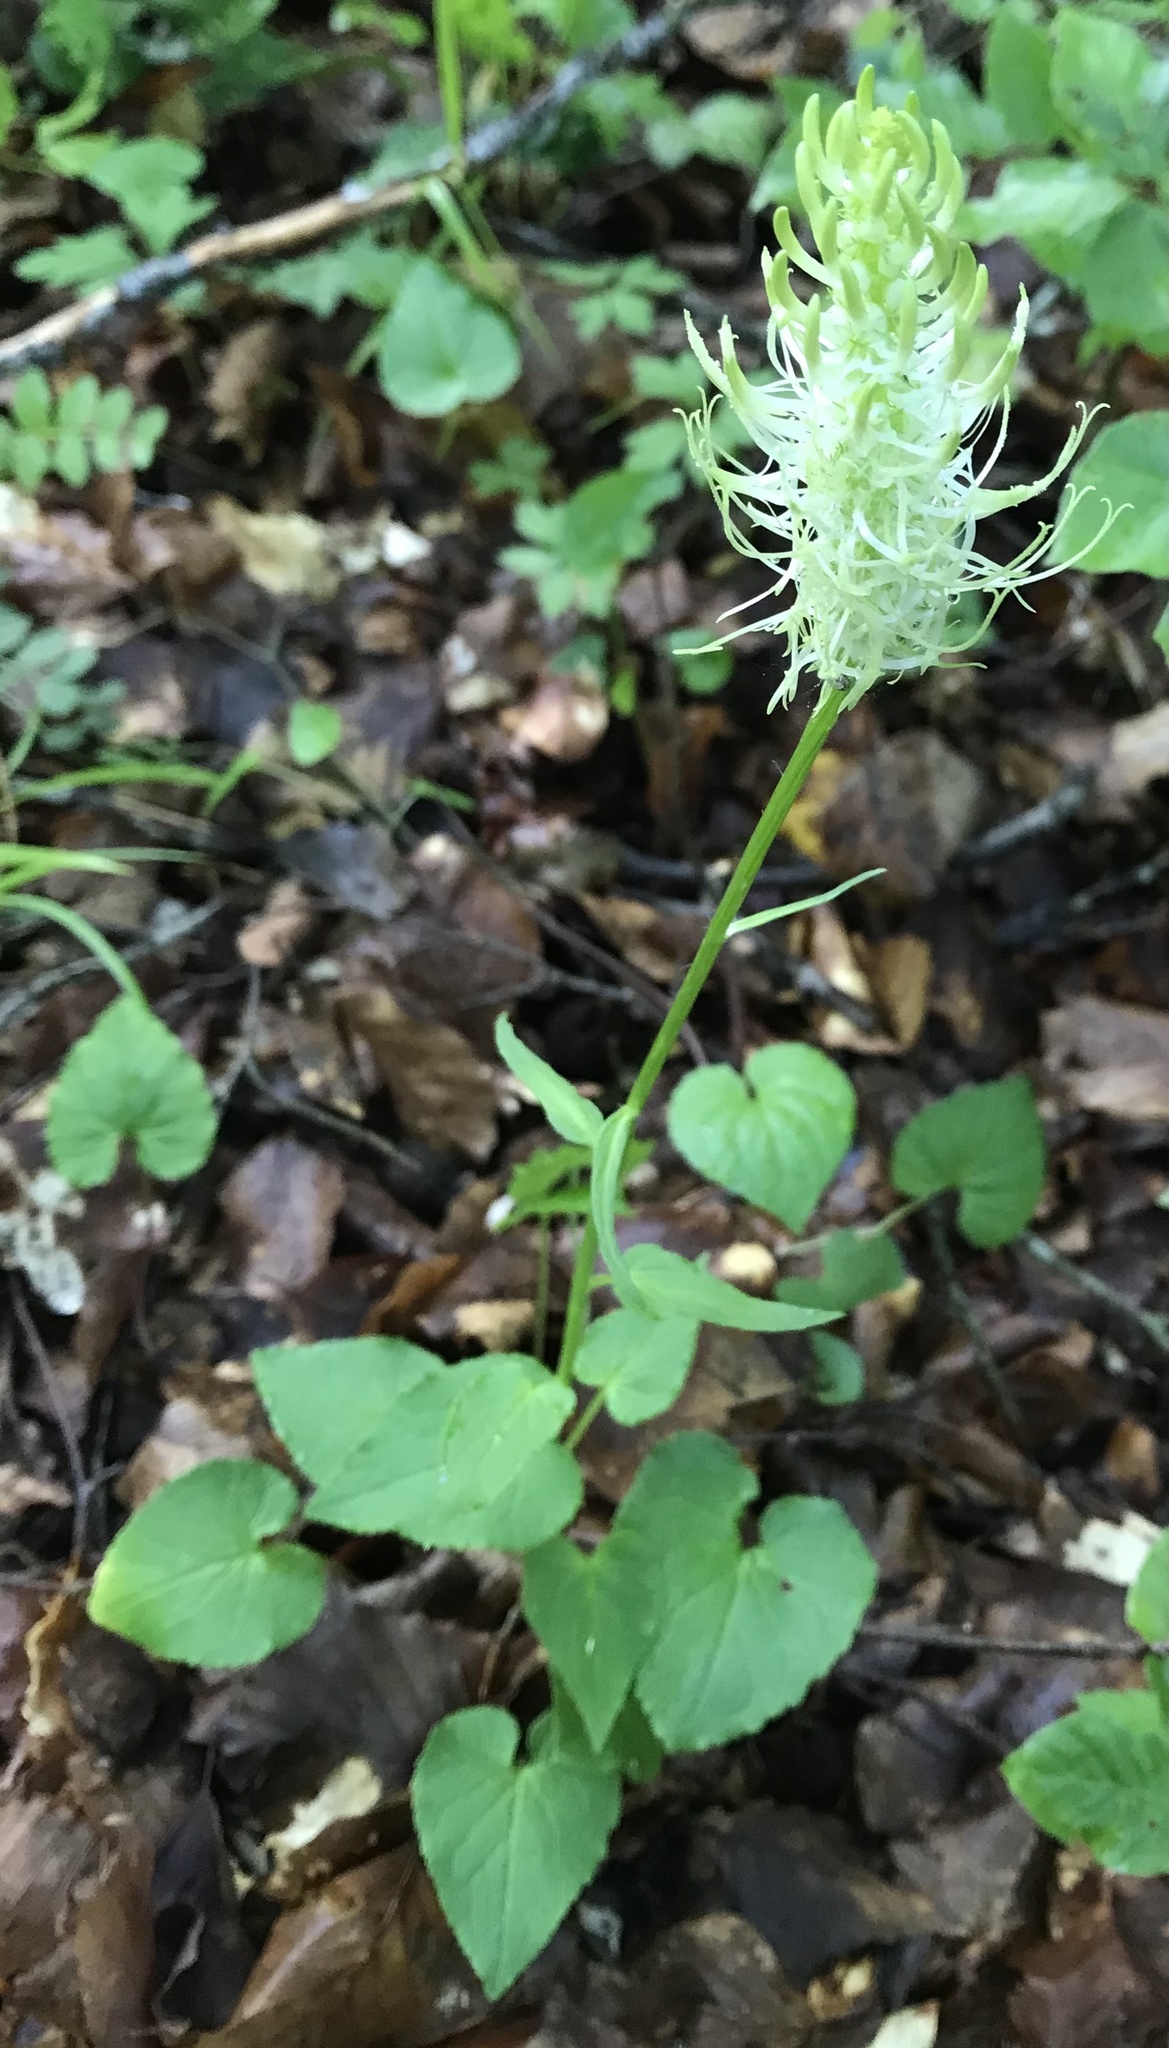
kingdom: Plantae
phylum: Tracheophyta
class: Magnoliopsida
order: Asterales
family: Campanulaceae
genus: Phyteuma
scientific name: Phyteuma spicatum
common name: Spiked rampion
